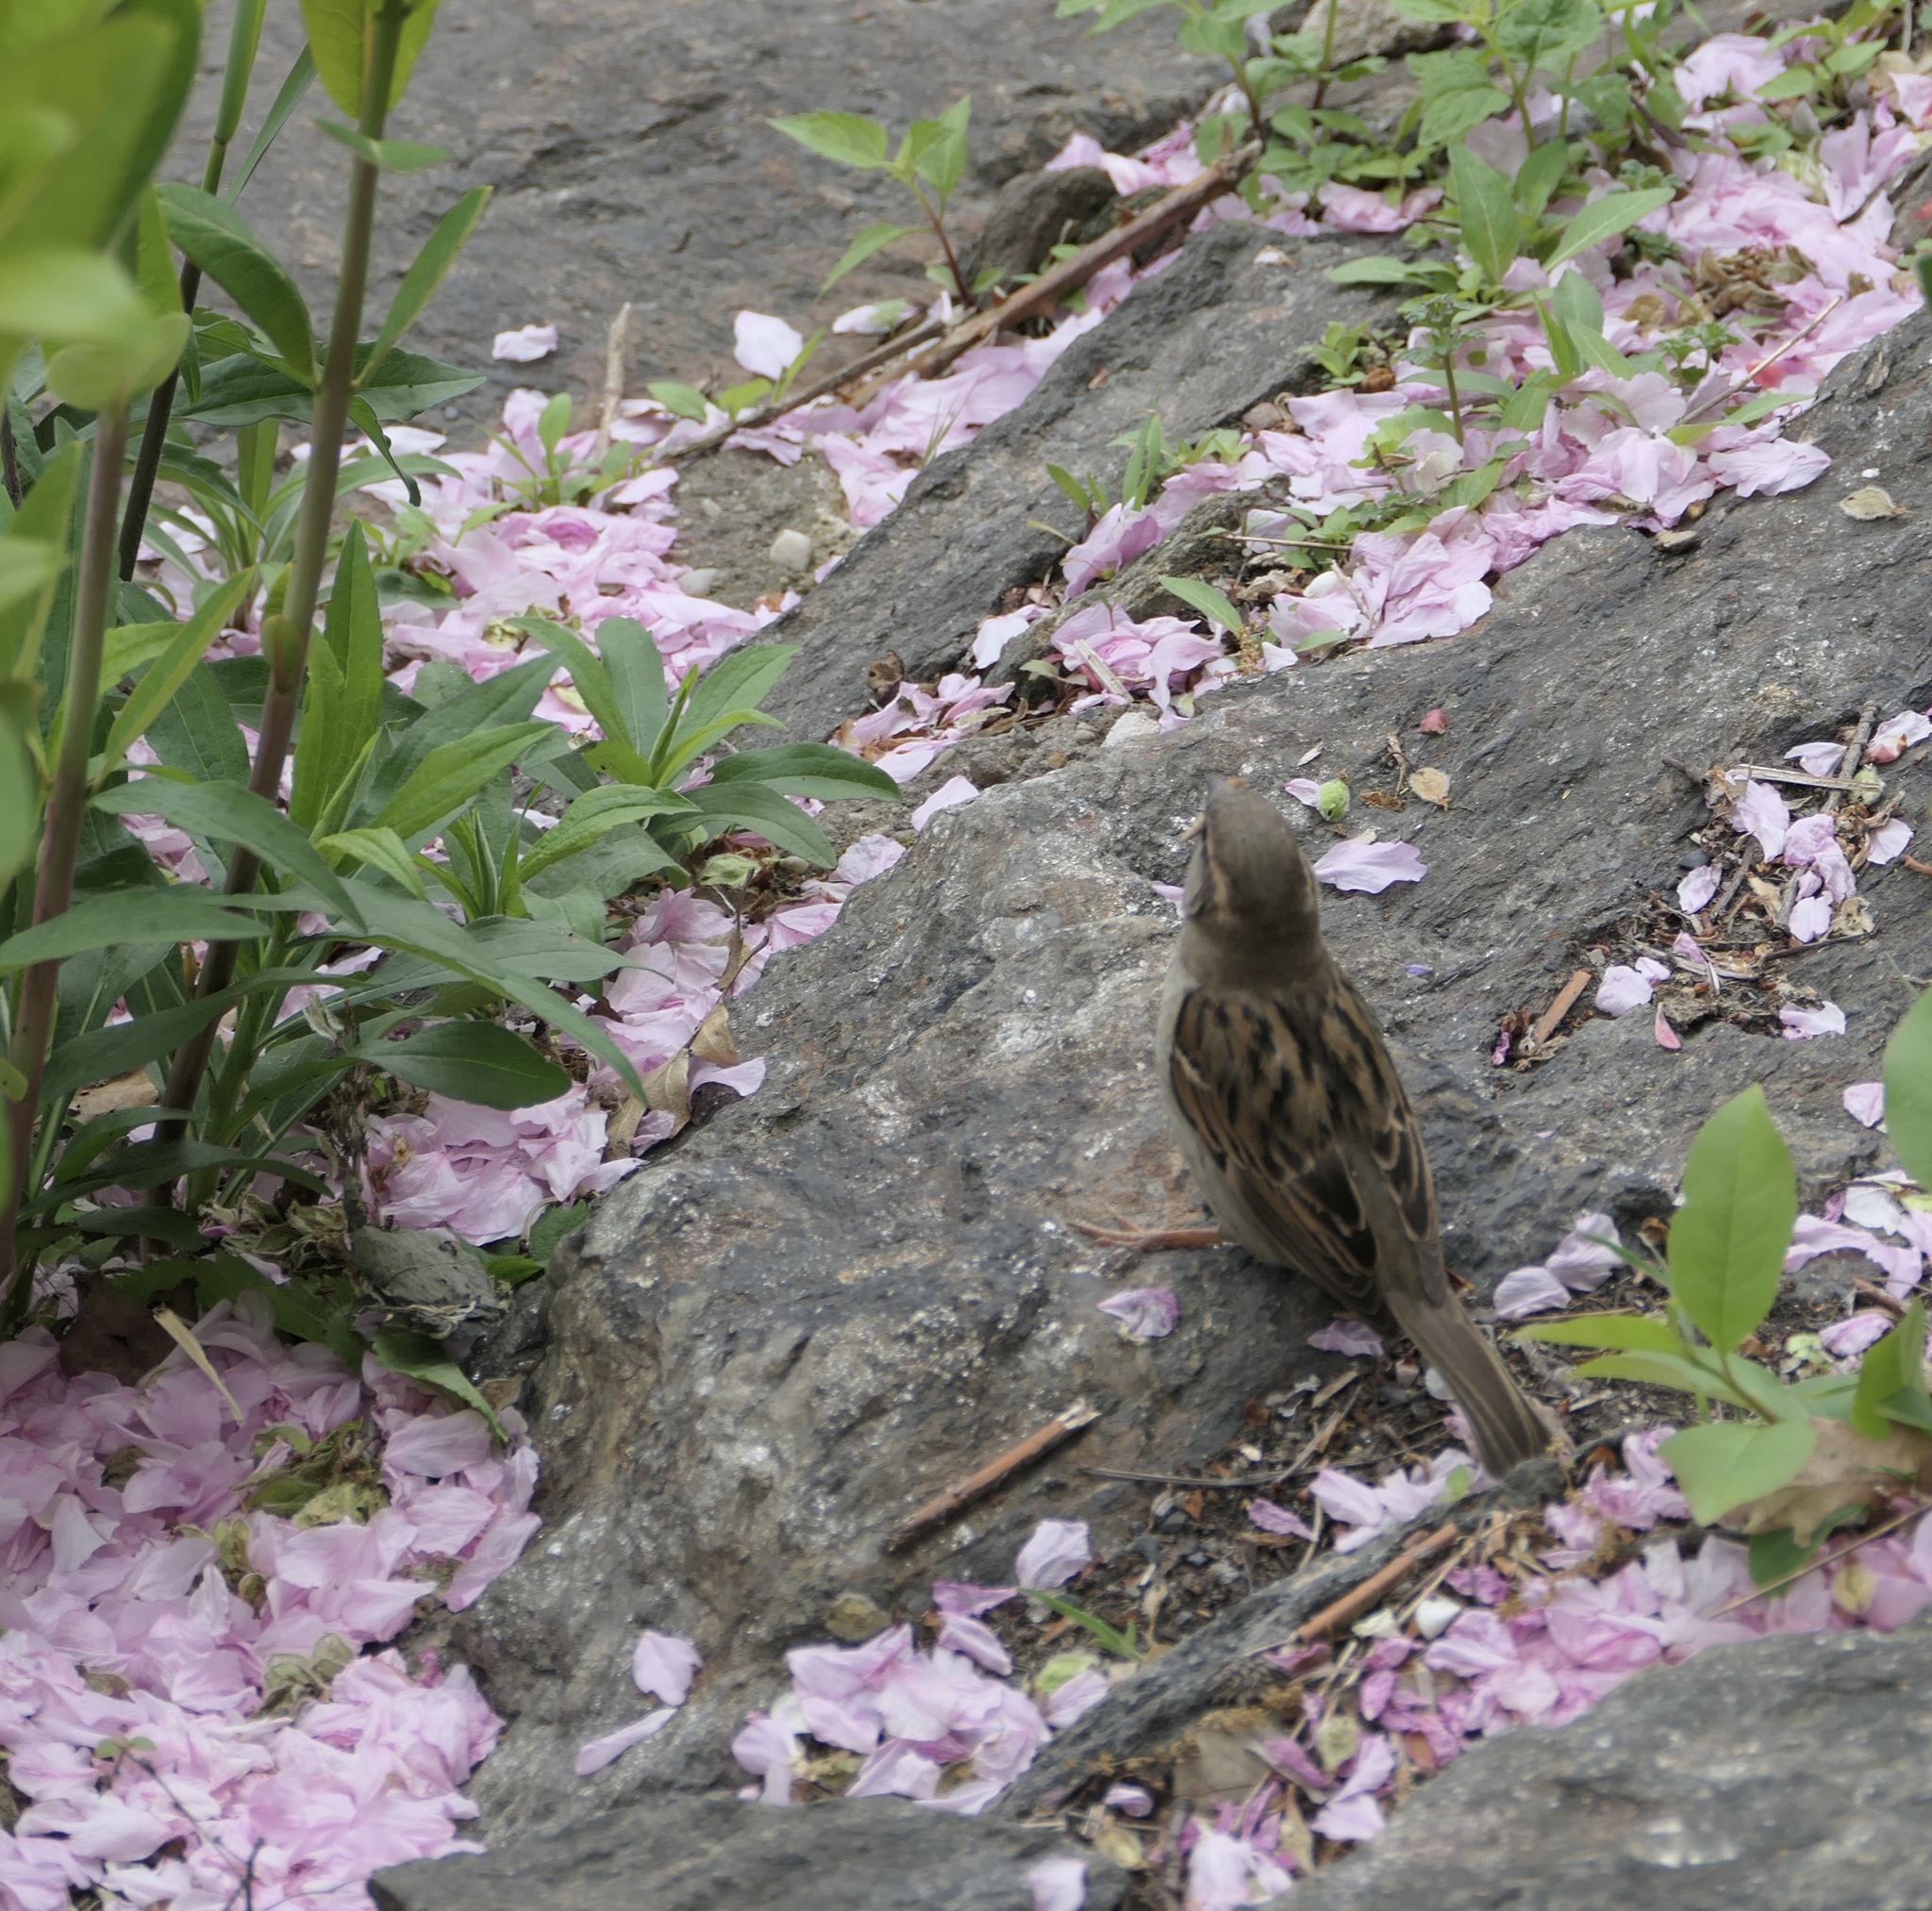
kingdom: Animalia
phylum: Chordata
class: Aves
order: Passeriformes
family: Passeridae
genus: Passer
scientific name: Passer domesticus
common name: House sparrow
